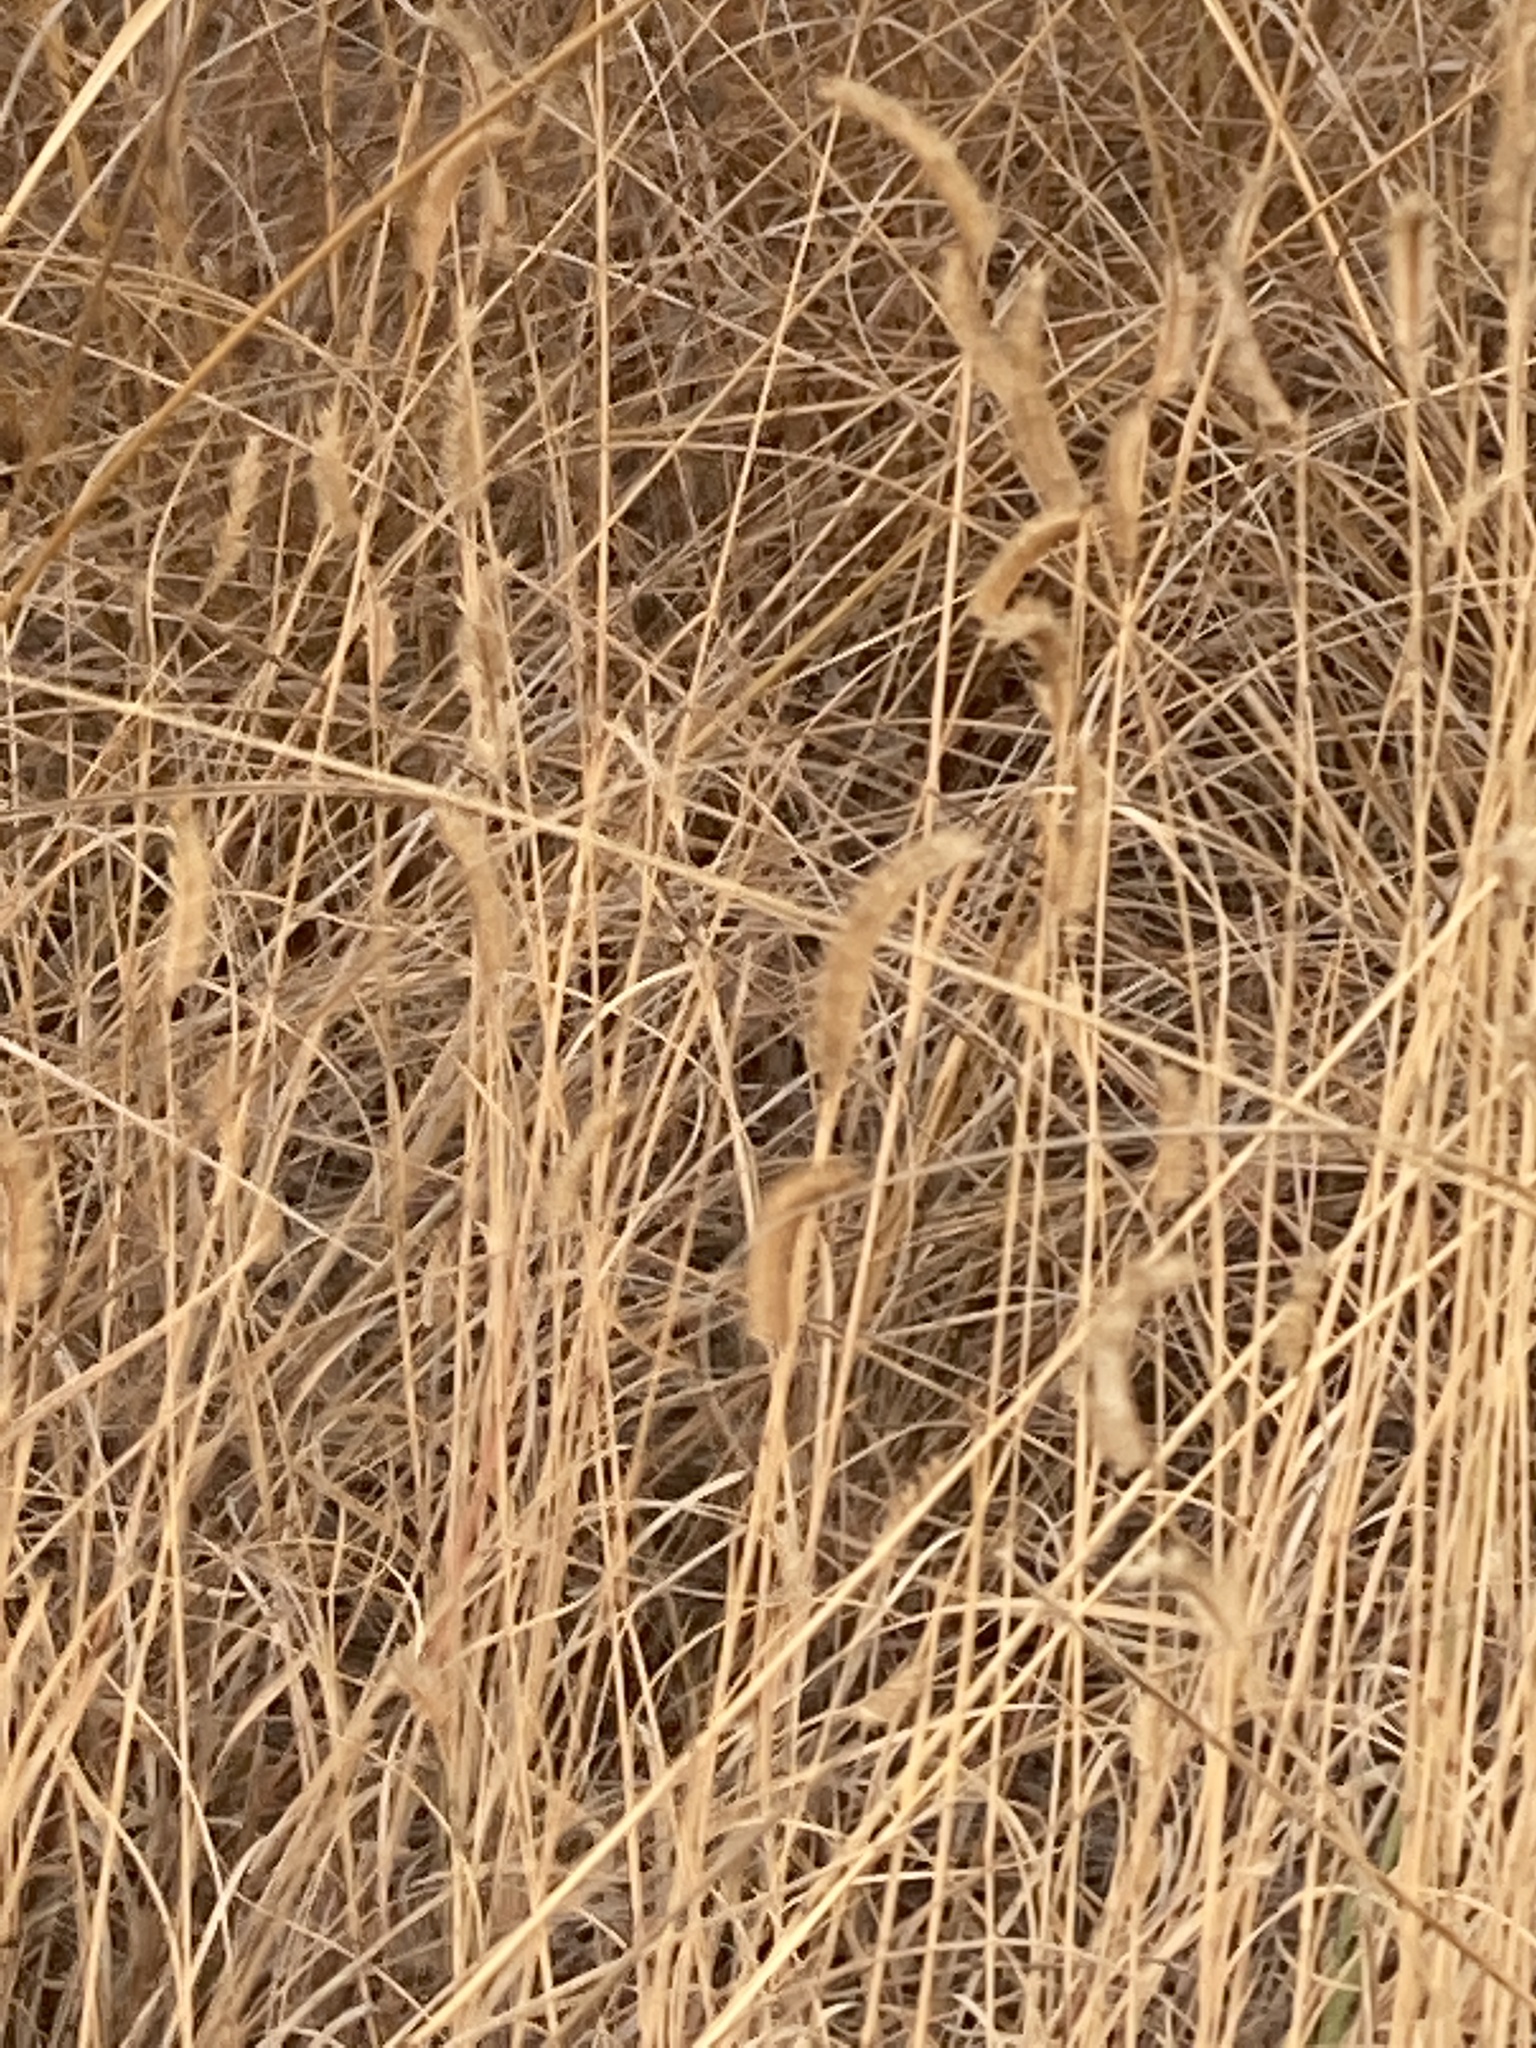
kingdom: Plantae
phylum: Tracheophyta
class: Liliopsida
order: Poales
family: Poaceae
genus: Bouteloua
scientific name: Bouteloua gracilis
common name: Blue grama
